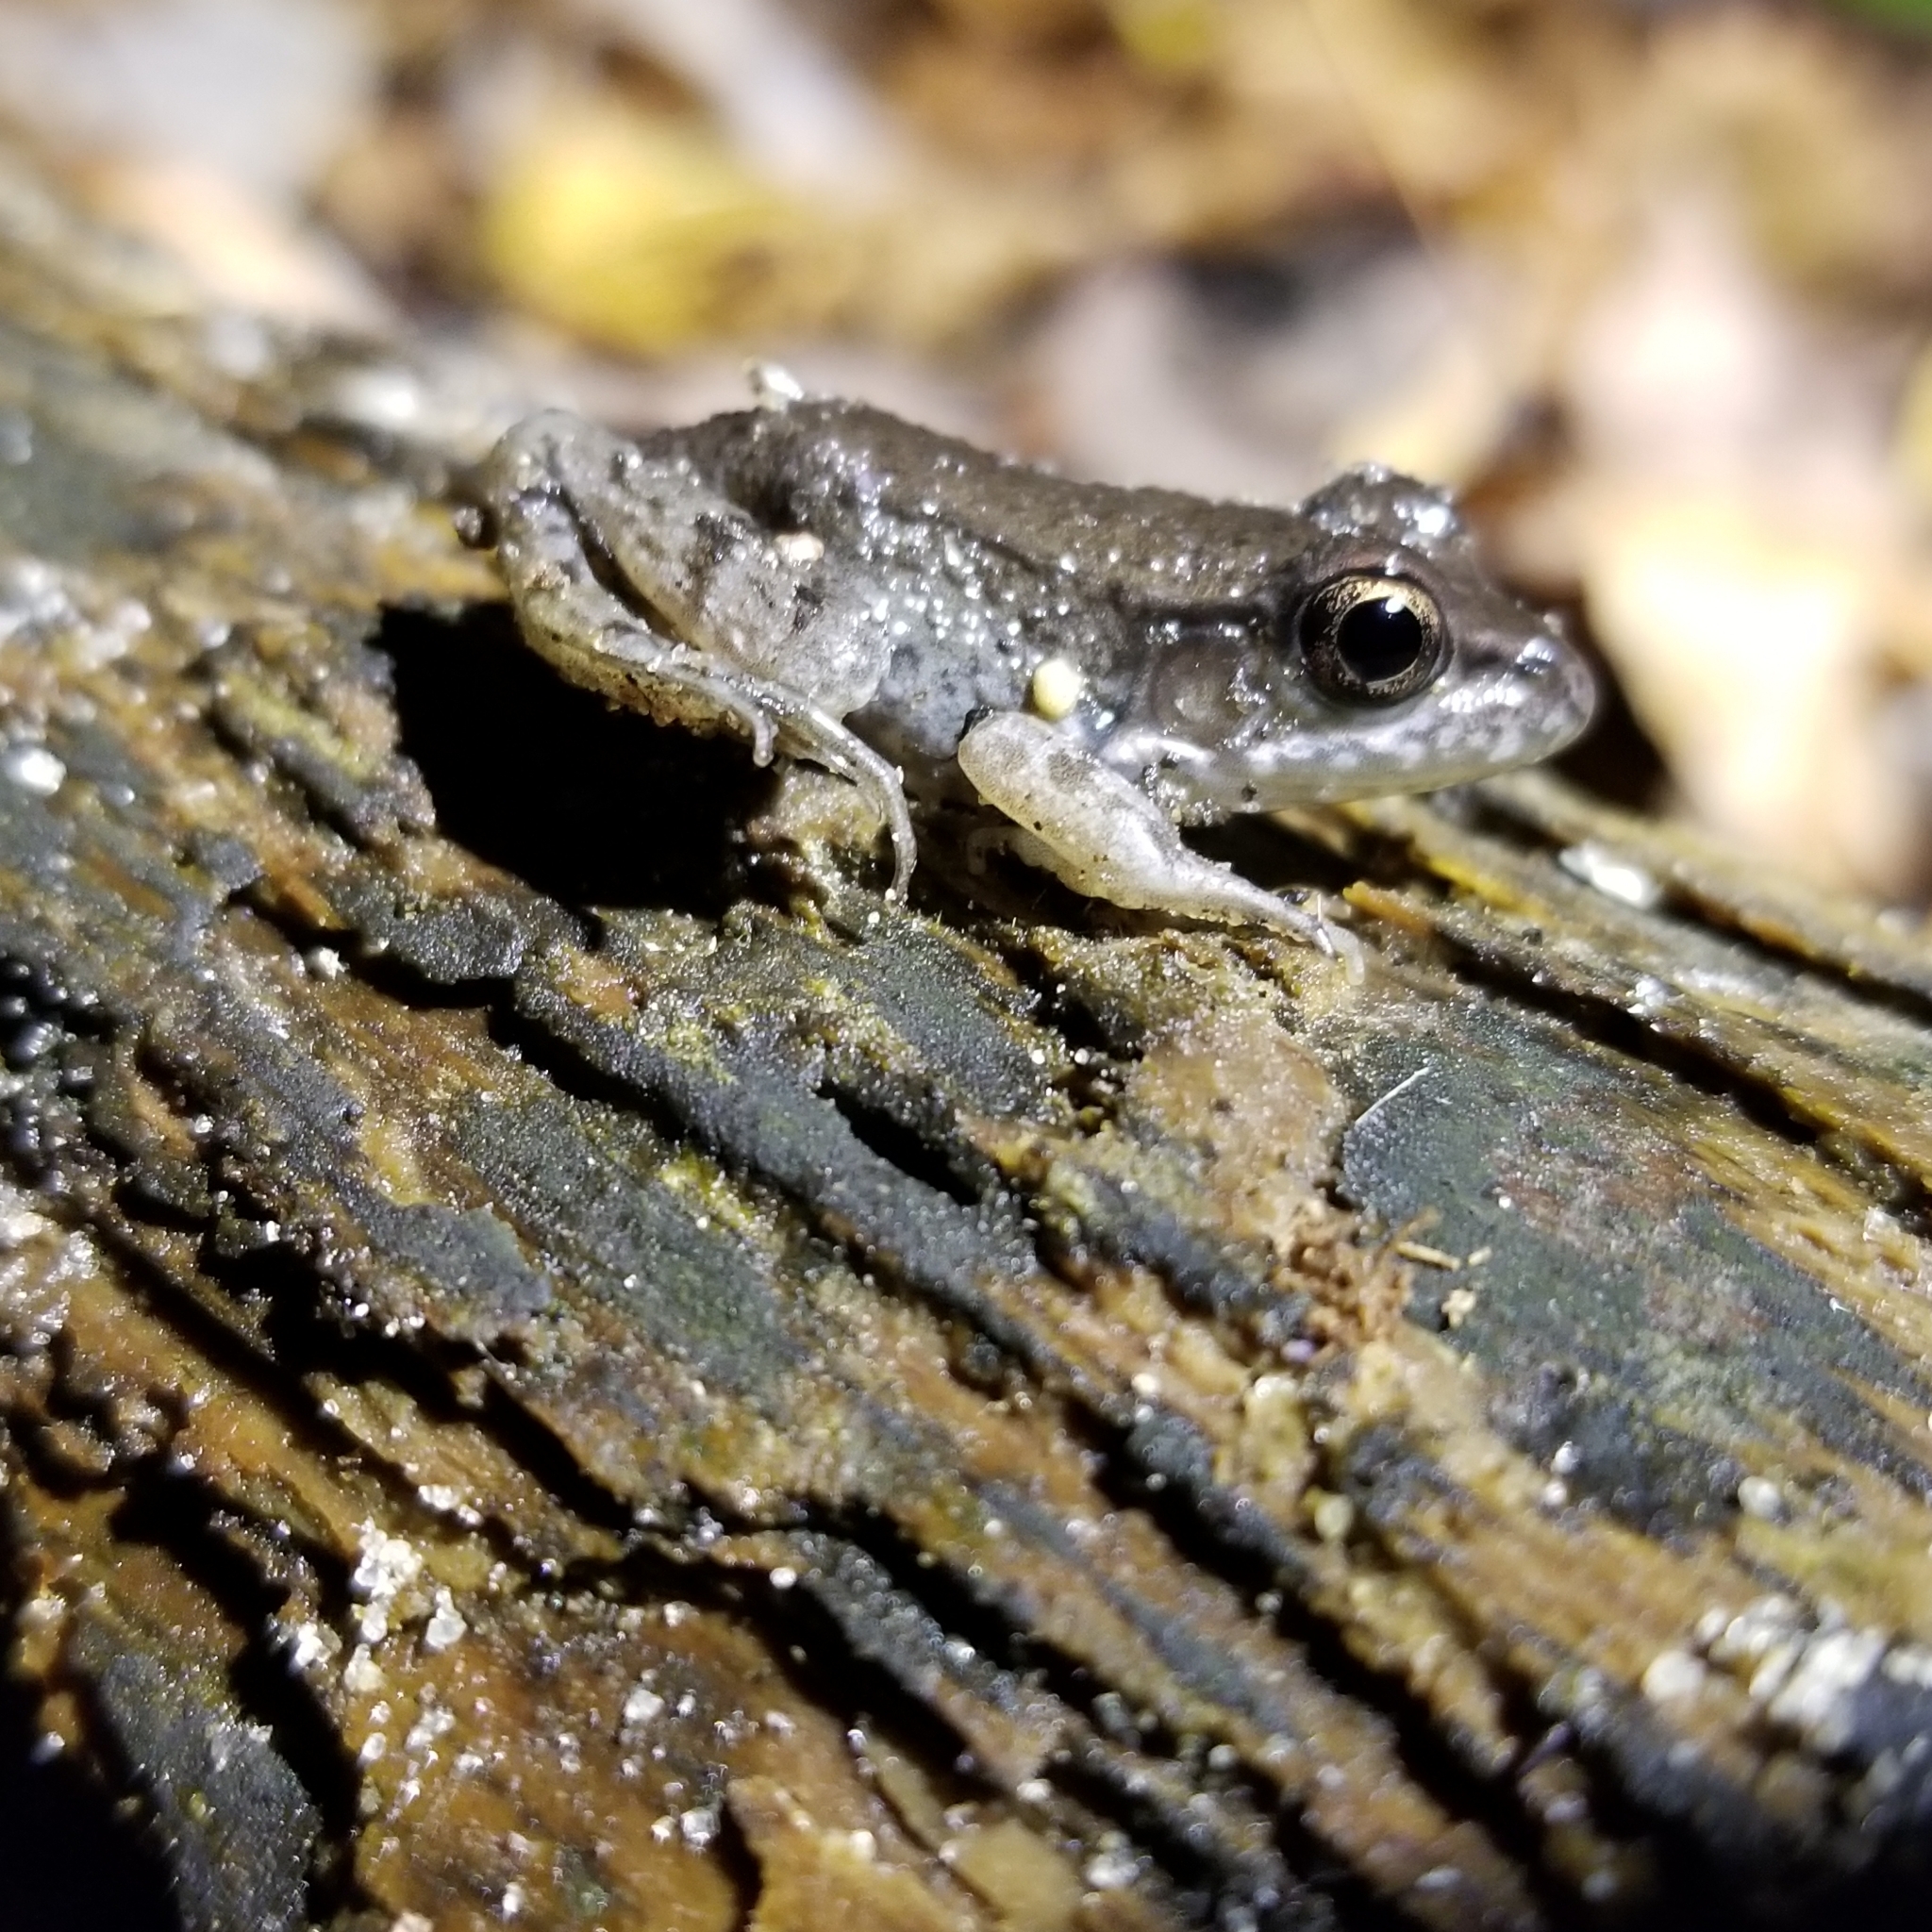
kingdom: Animalia
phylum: Chordata
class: Amphibia
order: Anura
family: Ranidae
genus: Lithobates
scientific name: Lithobates clamitans
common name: Green frog
